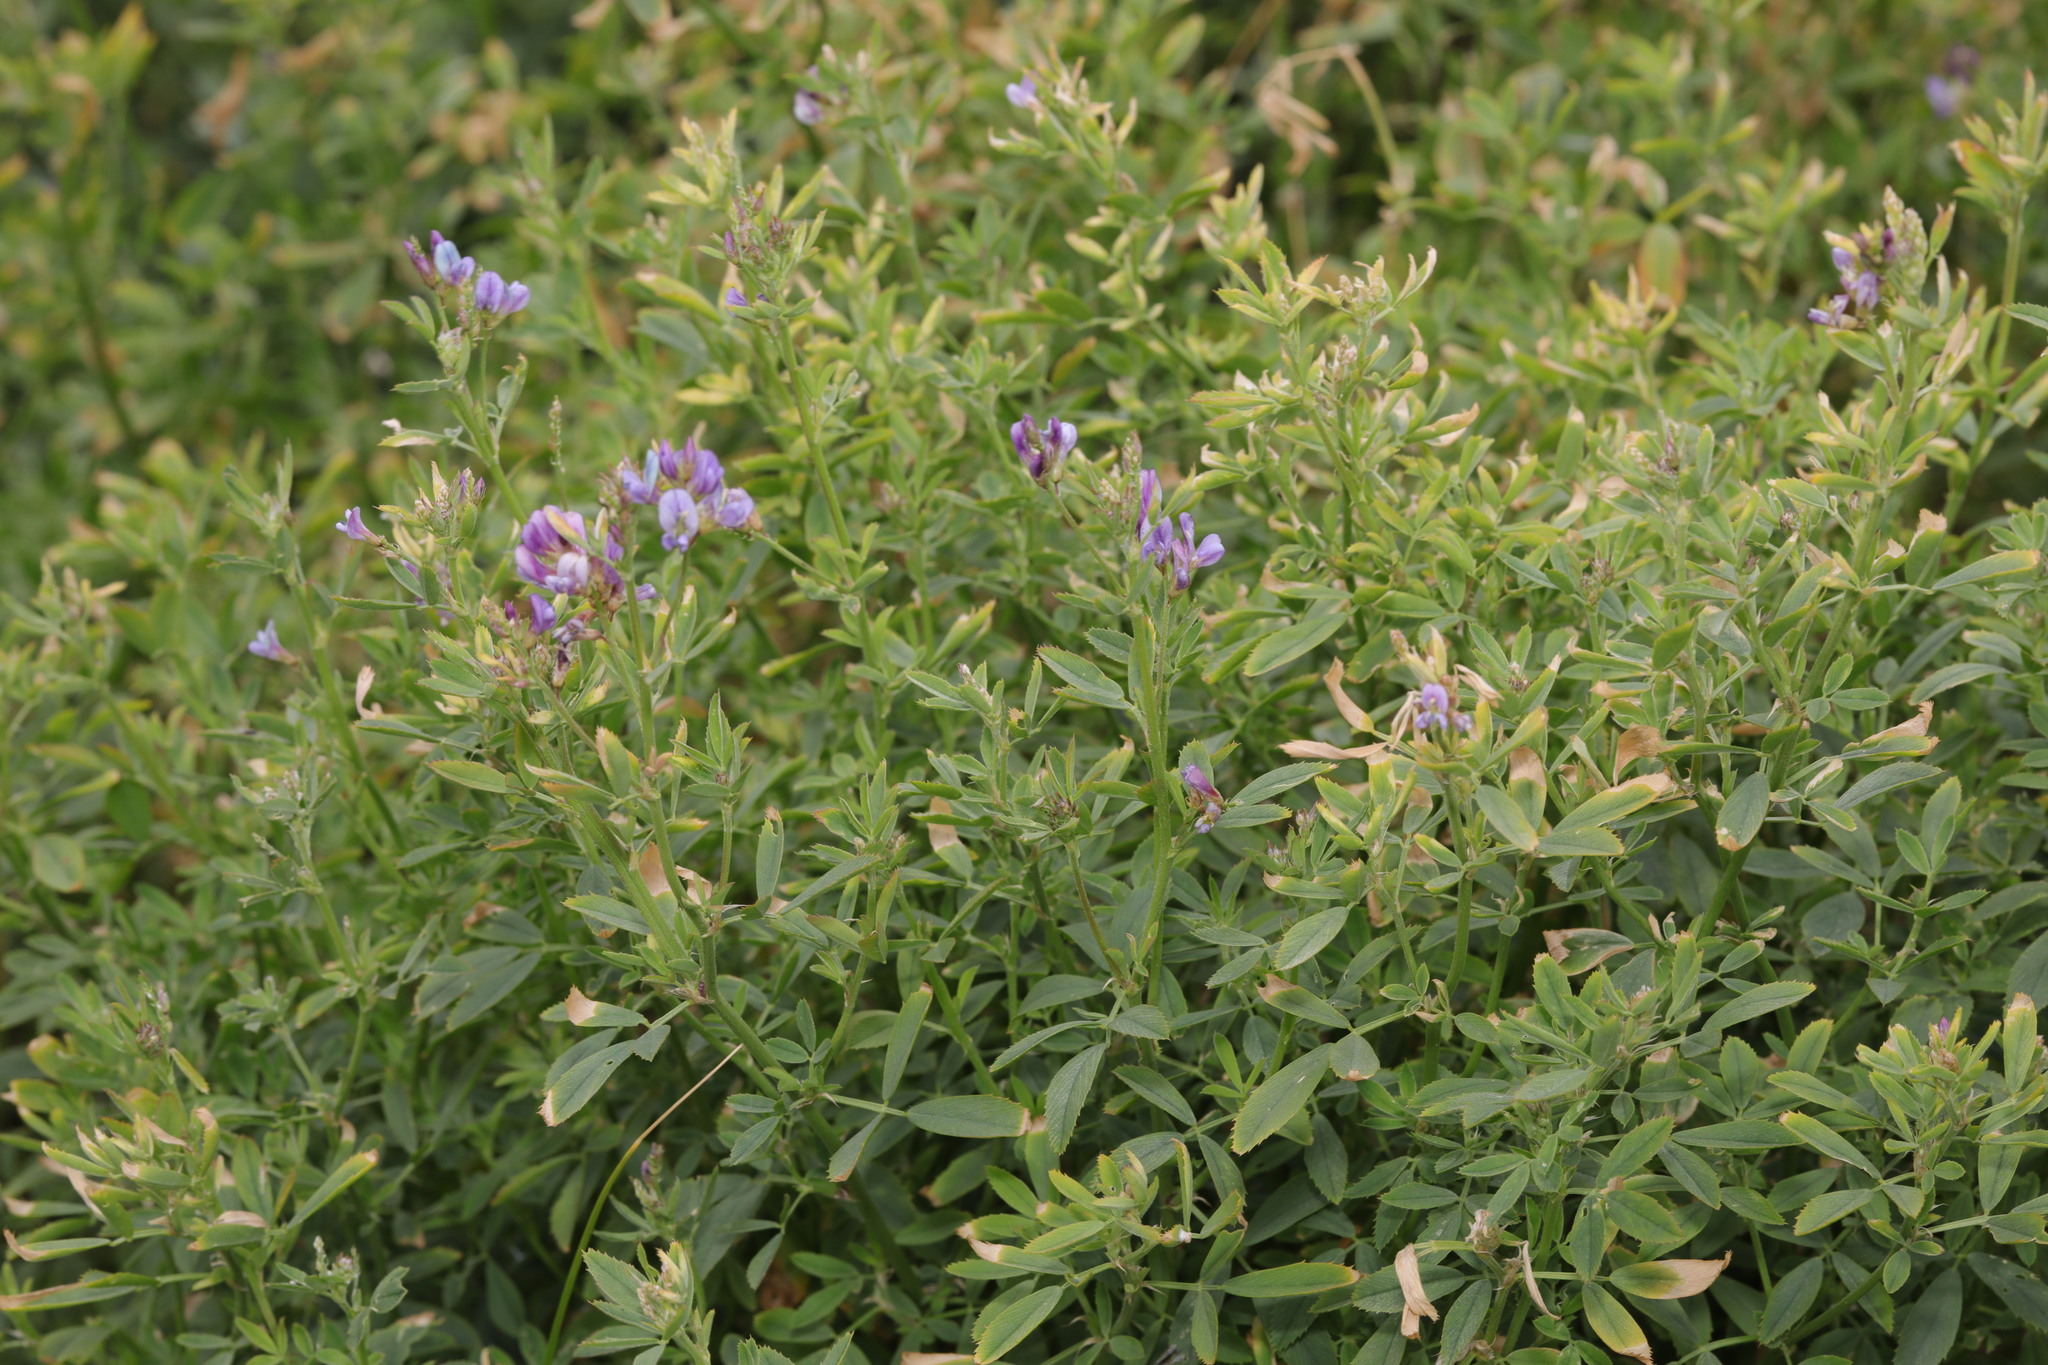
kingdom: Plantae
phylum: Tracheophyta
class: Magnoliopsida
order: Fabales
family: Fabaceae
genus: Medicago
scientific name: Medicago sativa
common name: Alfalfa
